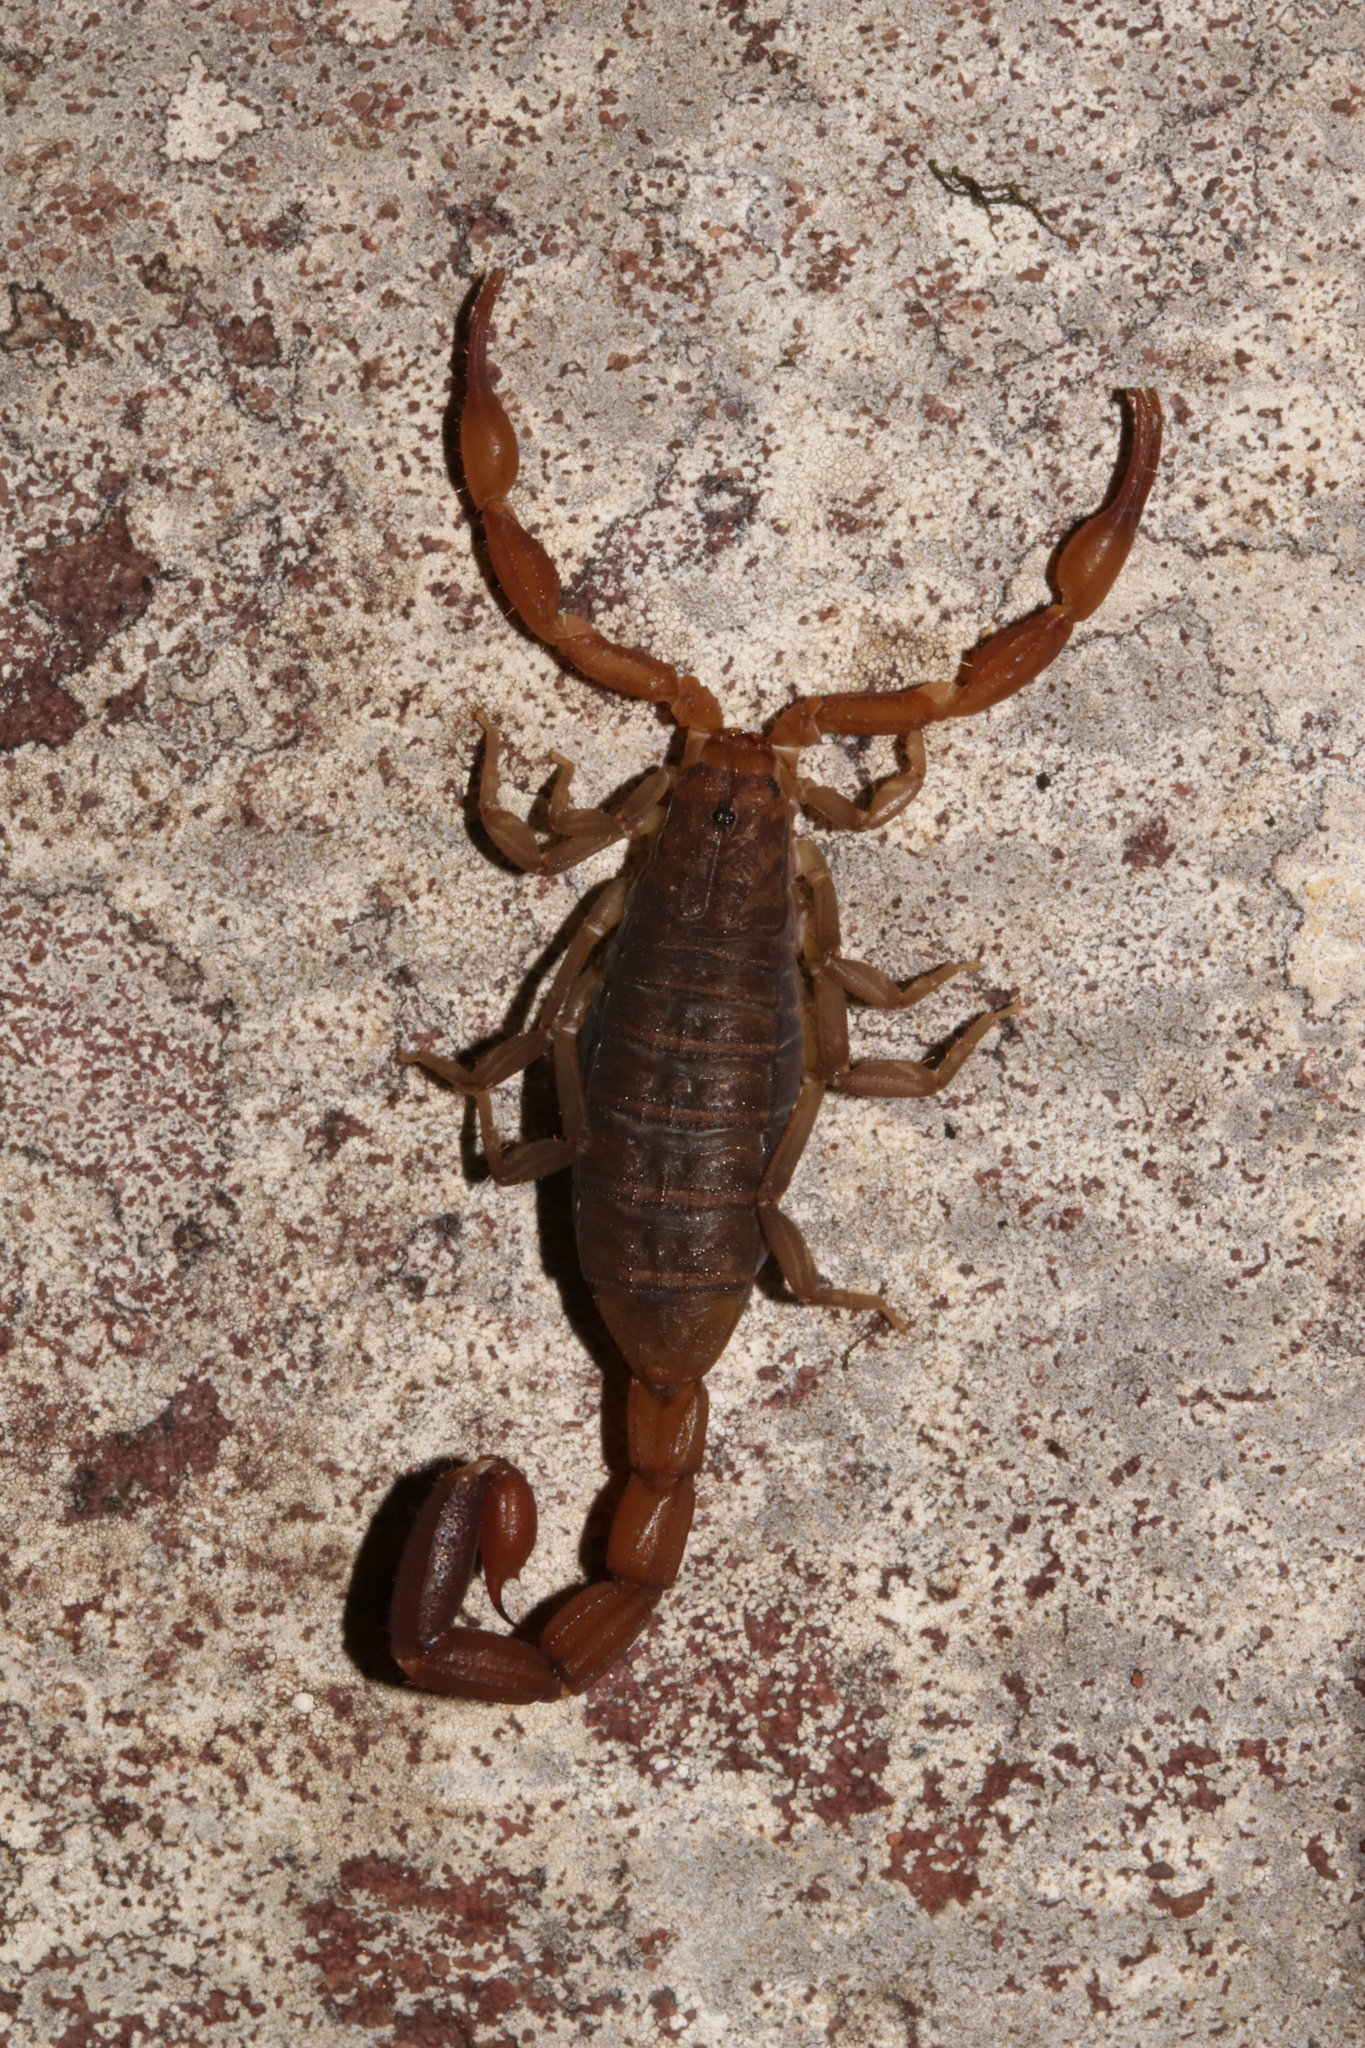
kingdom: Animalia
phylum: Arthropoda
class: Arachnida
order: Scorpiones
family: Buthidae
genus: Pseudolychas
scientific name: Pseudolychas ochraceus
